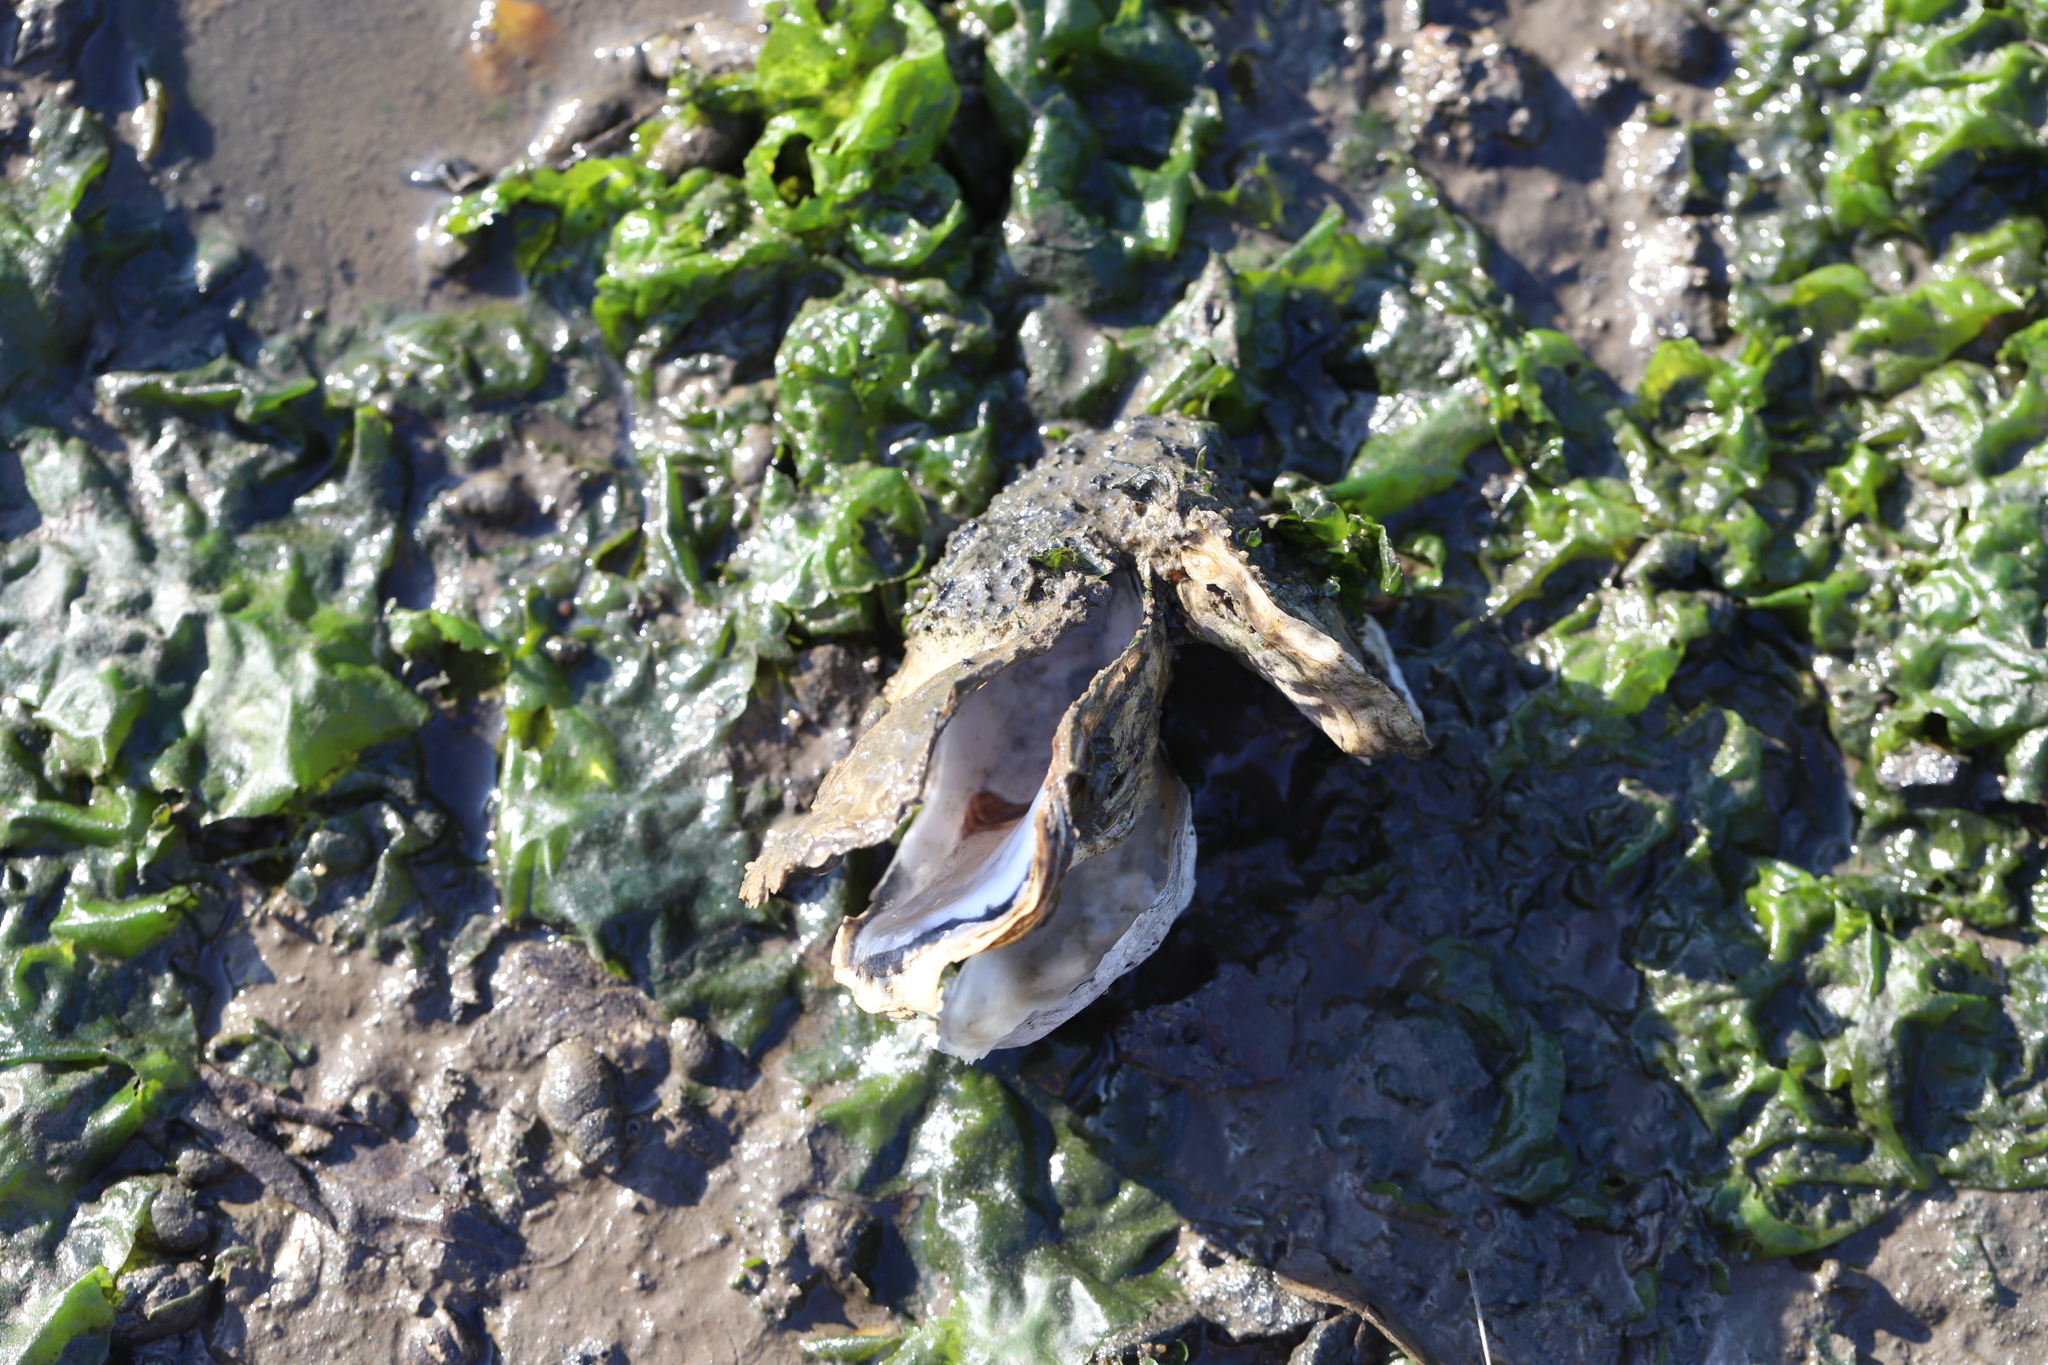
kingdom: Animalia
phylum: Mollusca
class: Bivalvia
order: Ostreida
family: Ostreidae
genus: Crassostrea
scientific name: Crassostrea virginica
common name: American oyster
